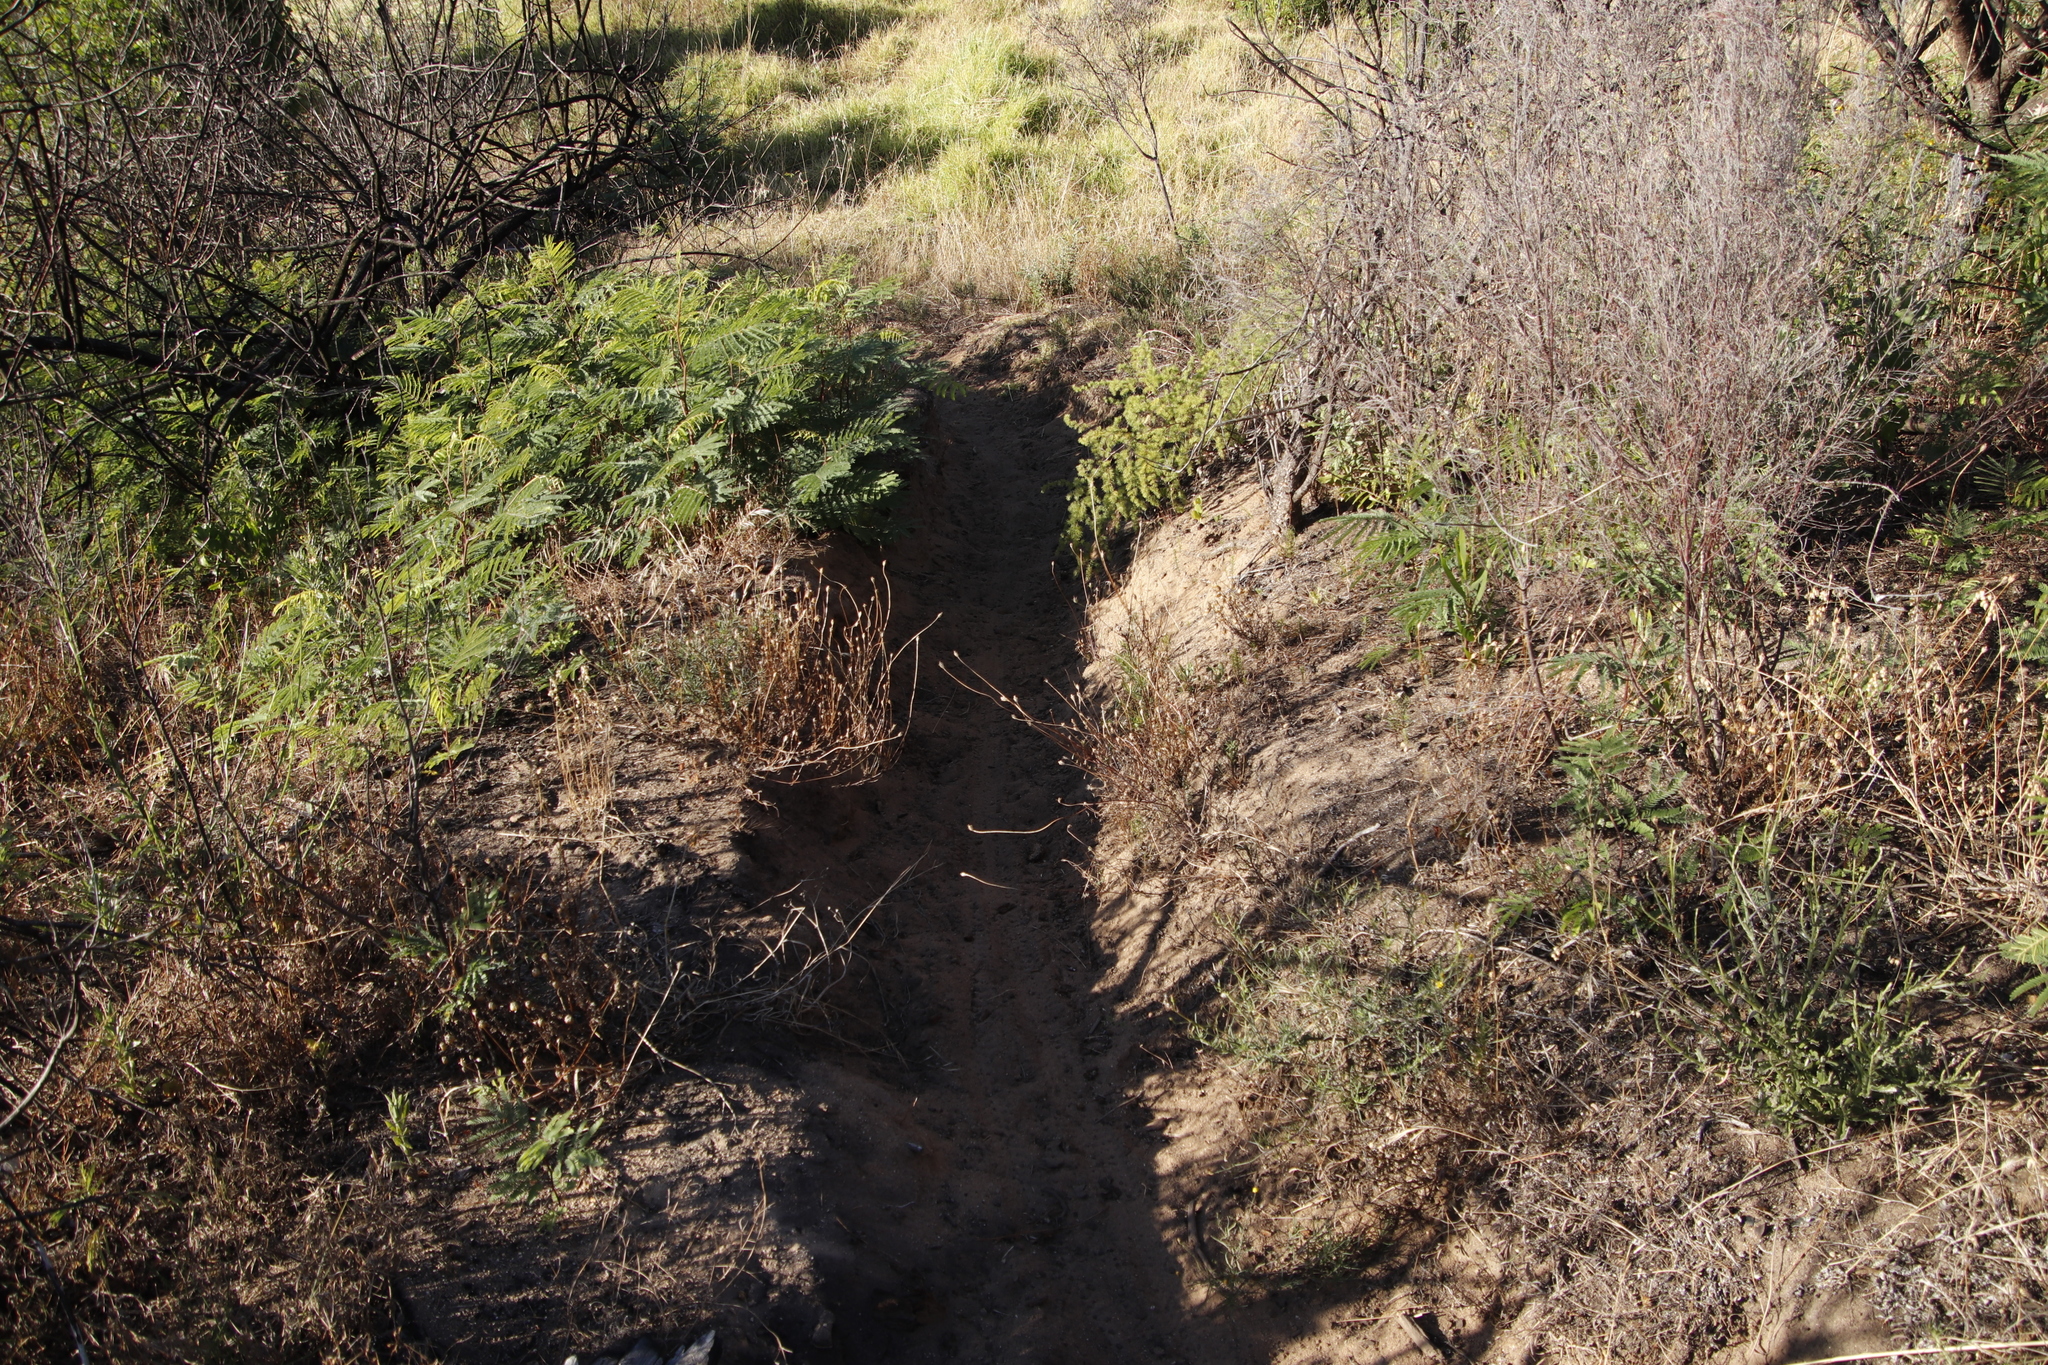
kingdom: Animalia
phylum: Chordata
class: Mammalia
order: Perissodactyla
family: Equidae
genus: Equus
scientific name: Equus caballus
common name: Horse
